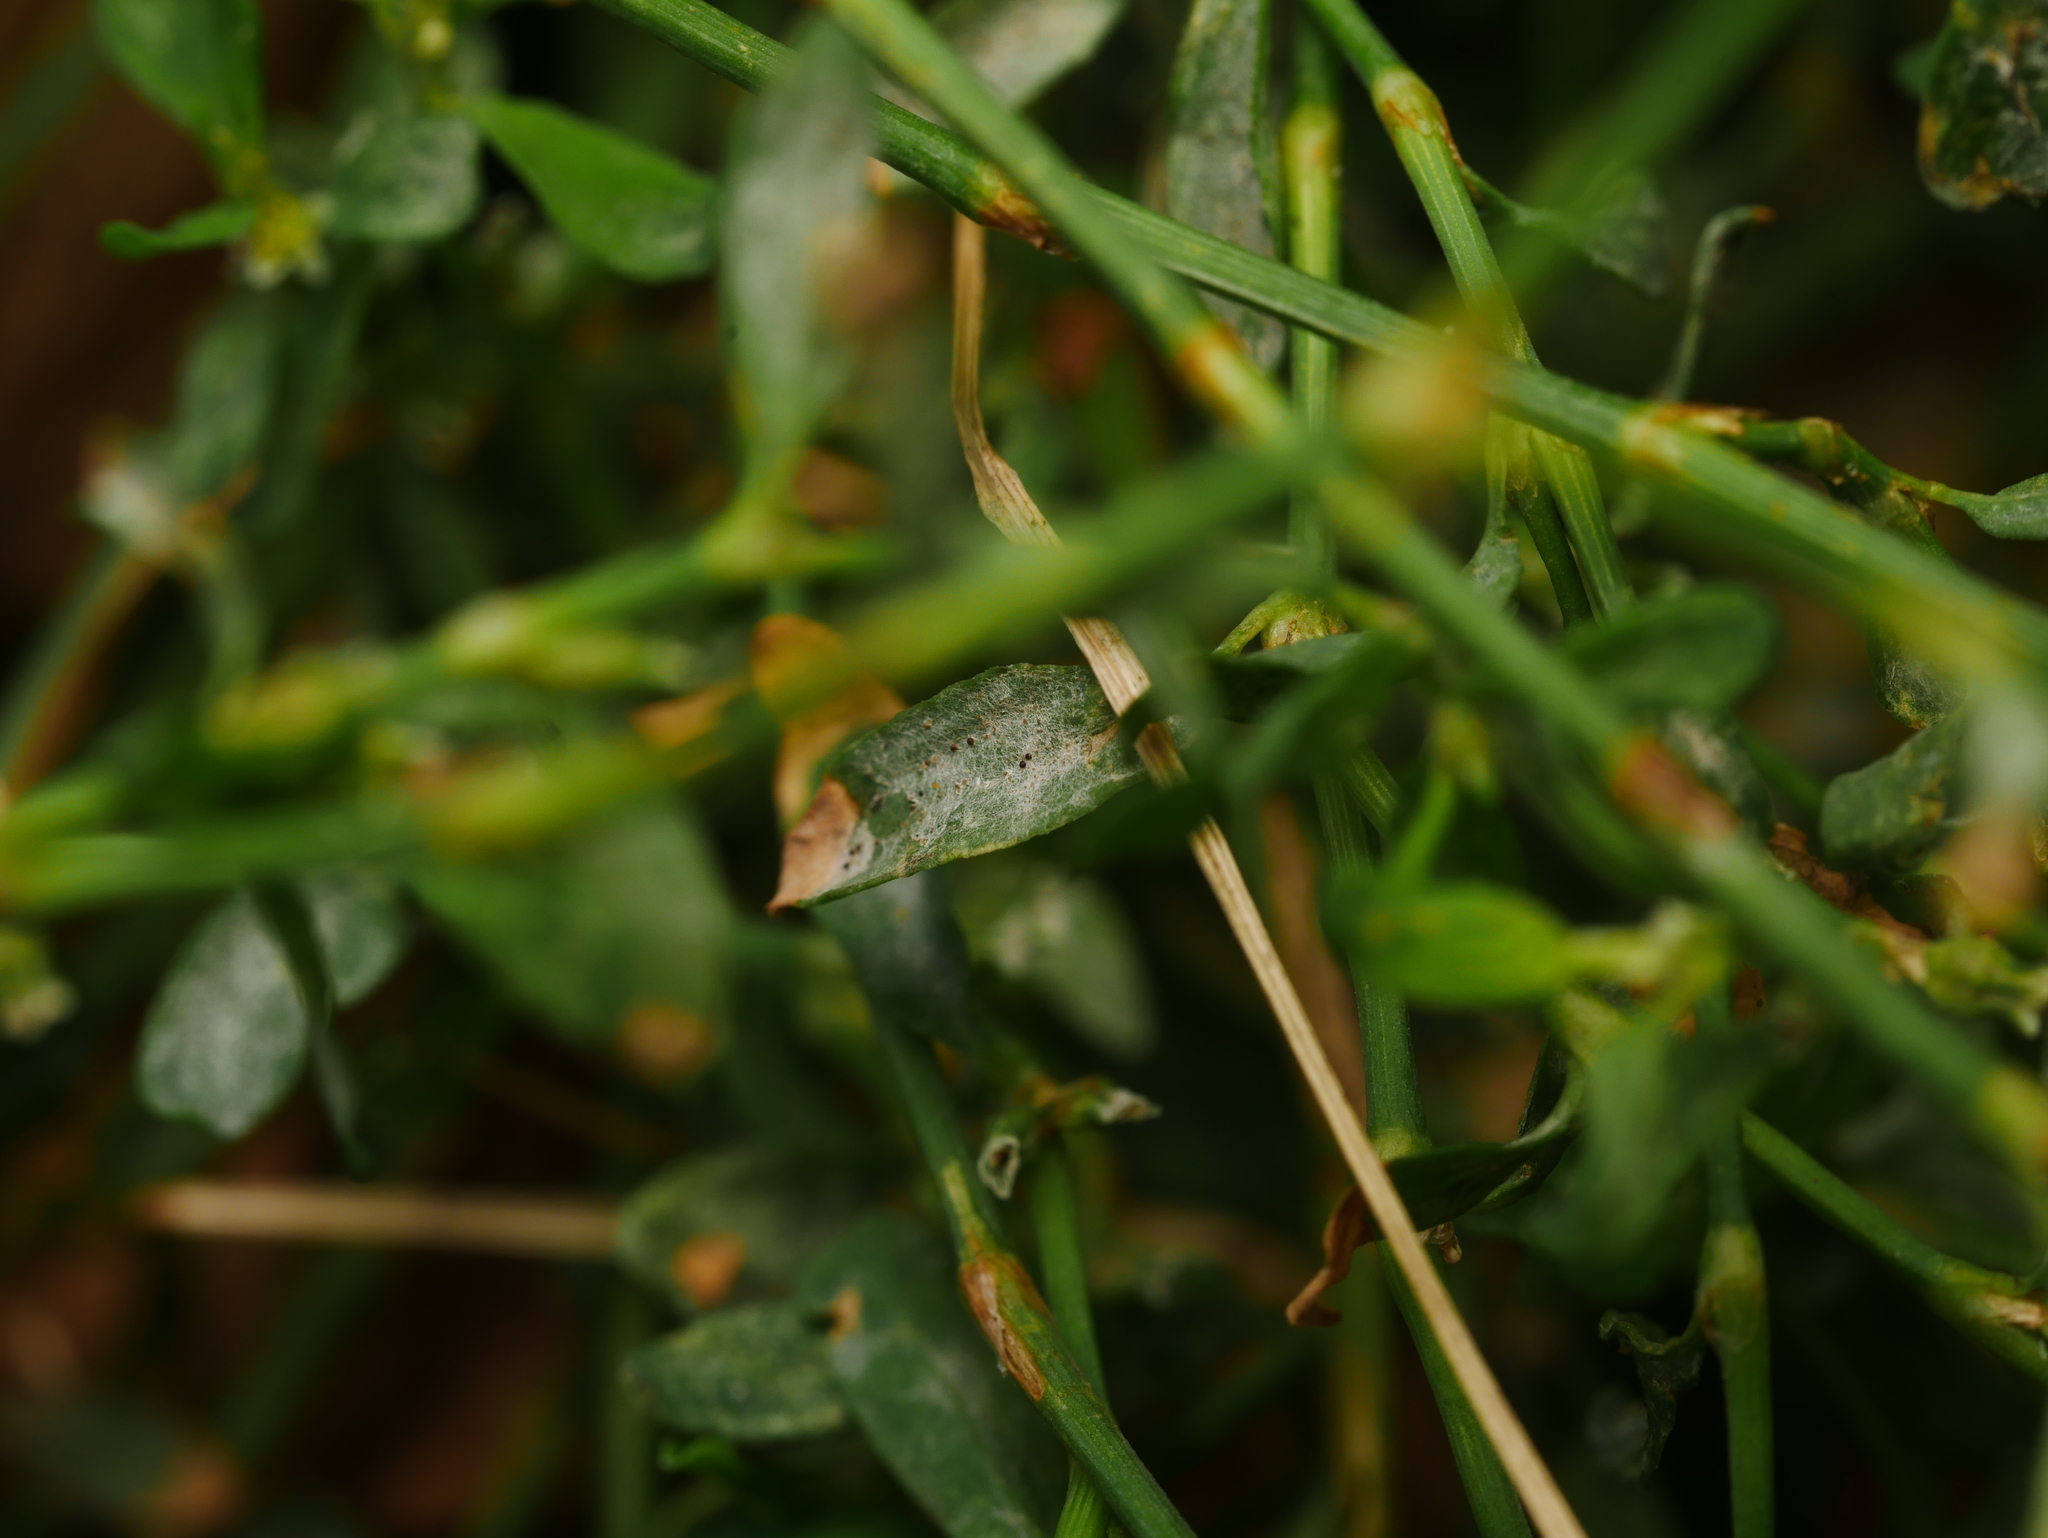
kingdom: Fungi
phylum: Ascomycota
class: Leotiomycetes
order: Helotiales
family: Erysiphaceae
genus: Erysiphe
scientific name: Erysiphe polygoni
